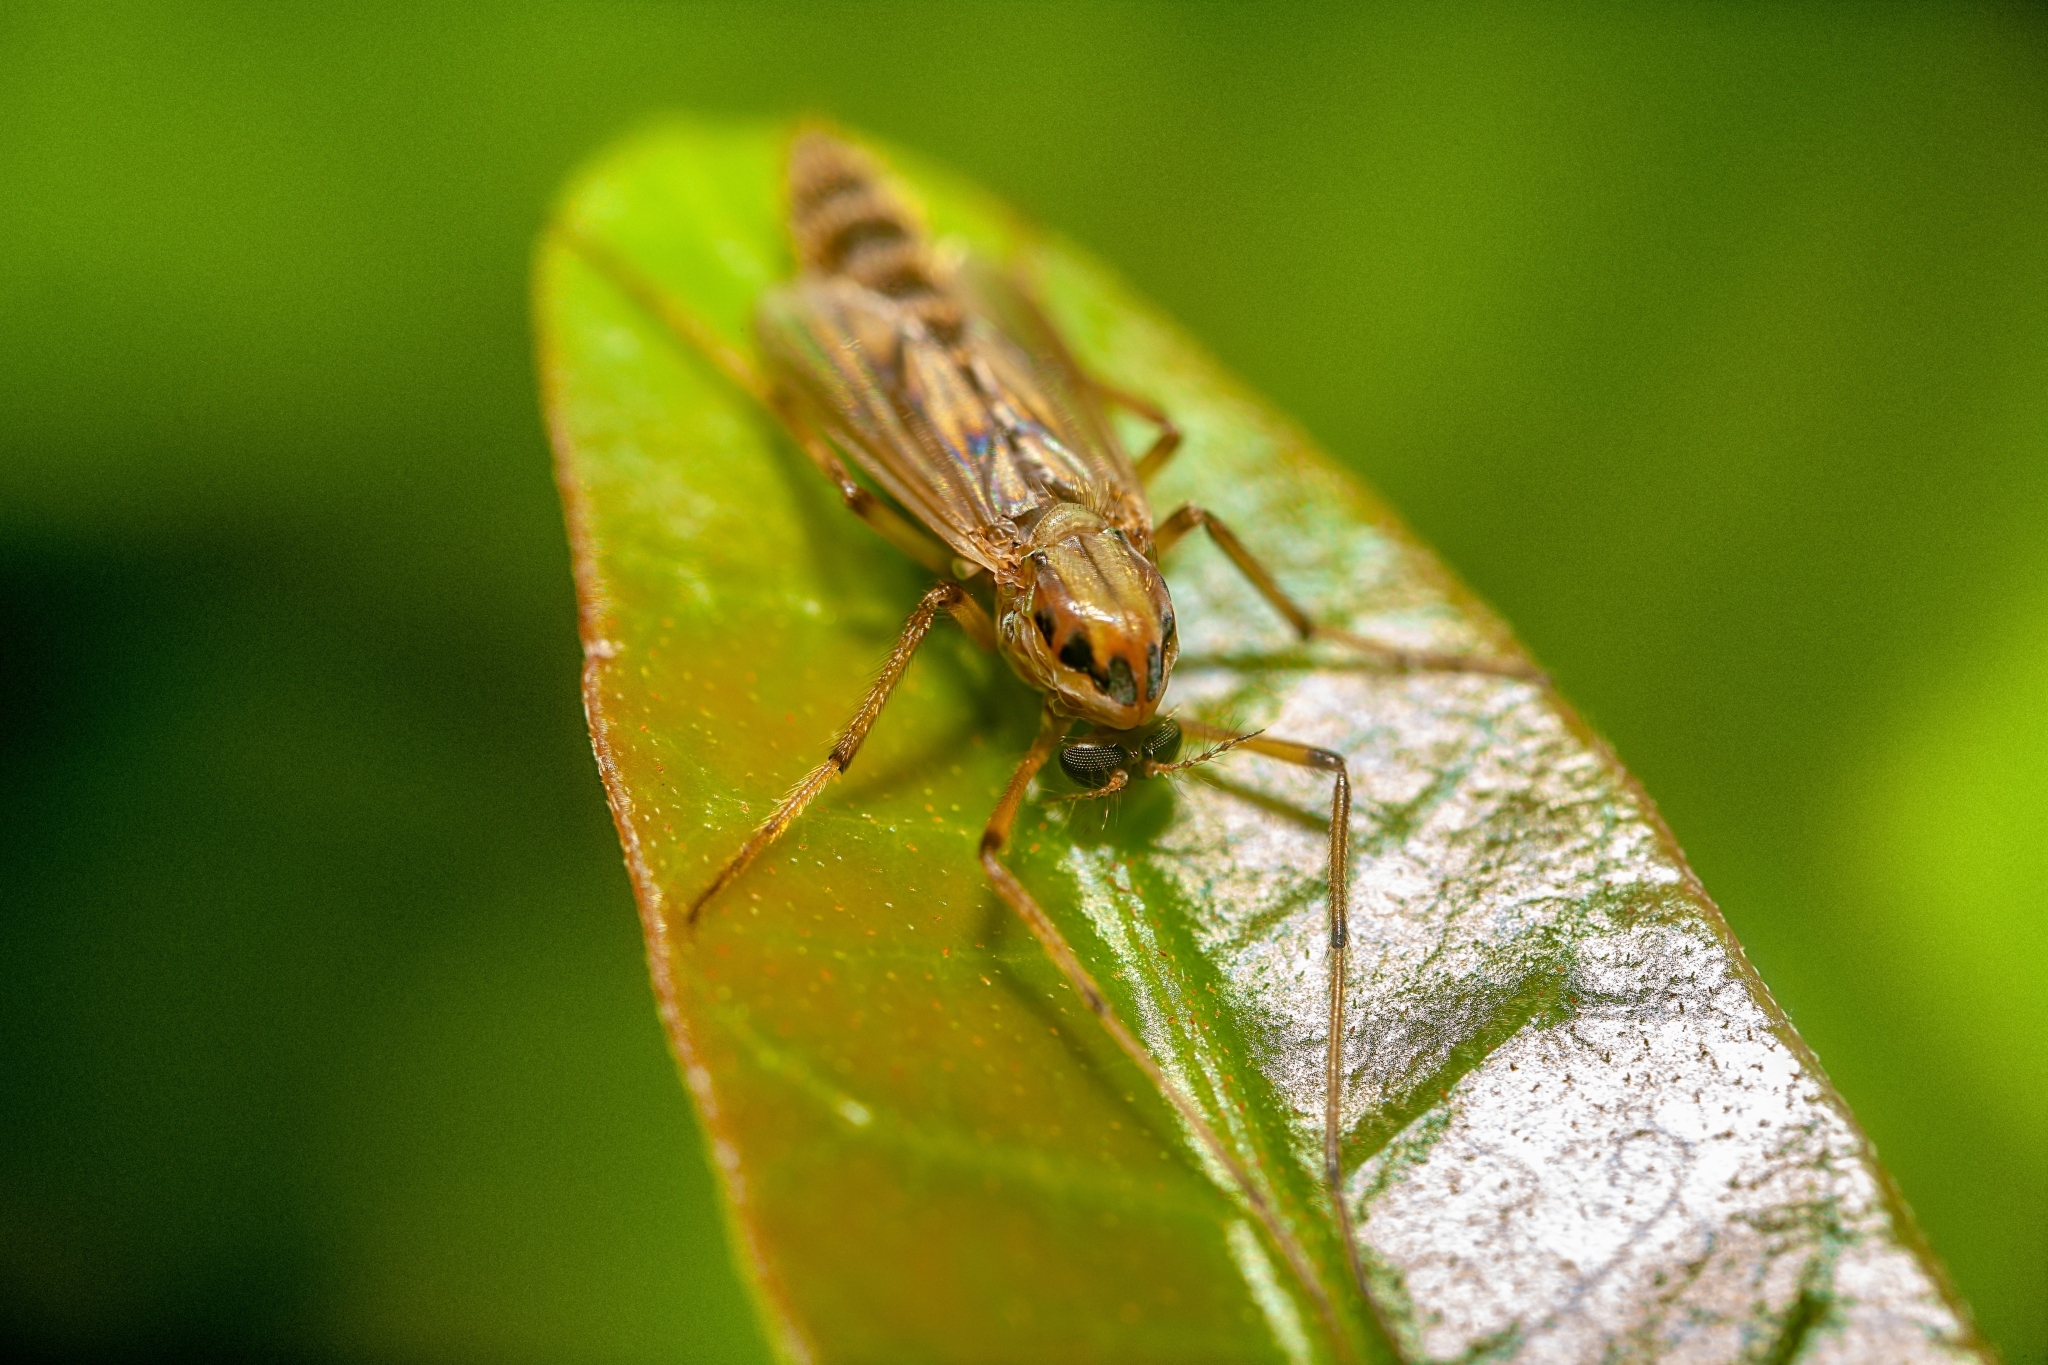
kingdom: Animalia
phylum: Arthropoda
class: Insecta
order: Diptera
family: Chironomidae
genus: Goeldichironomus
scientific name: Goeldichironomus carus
